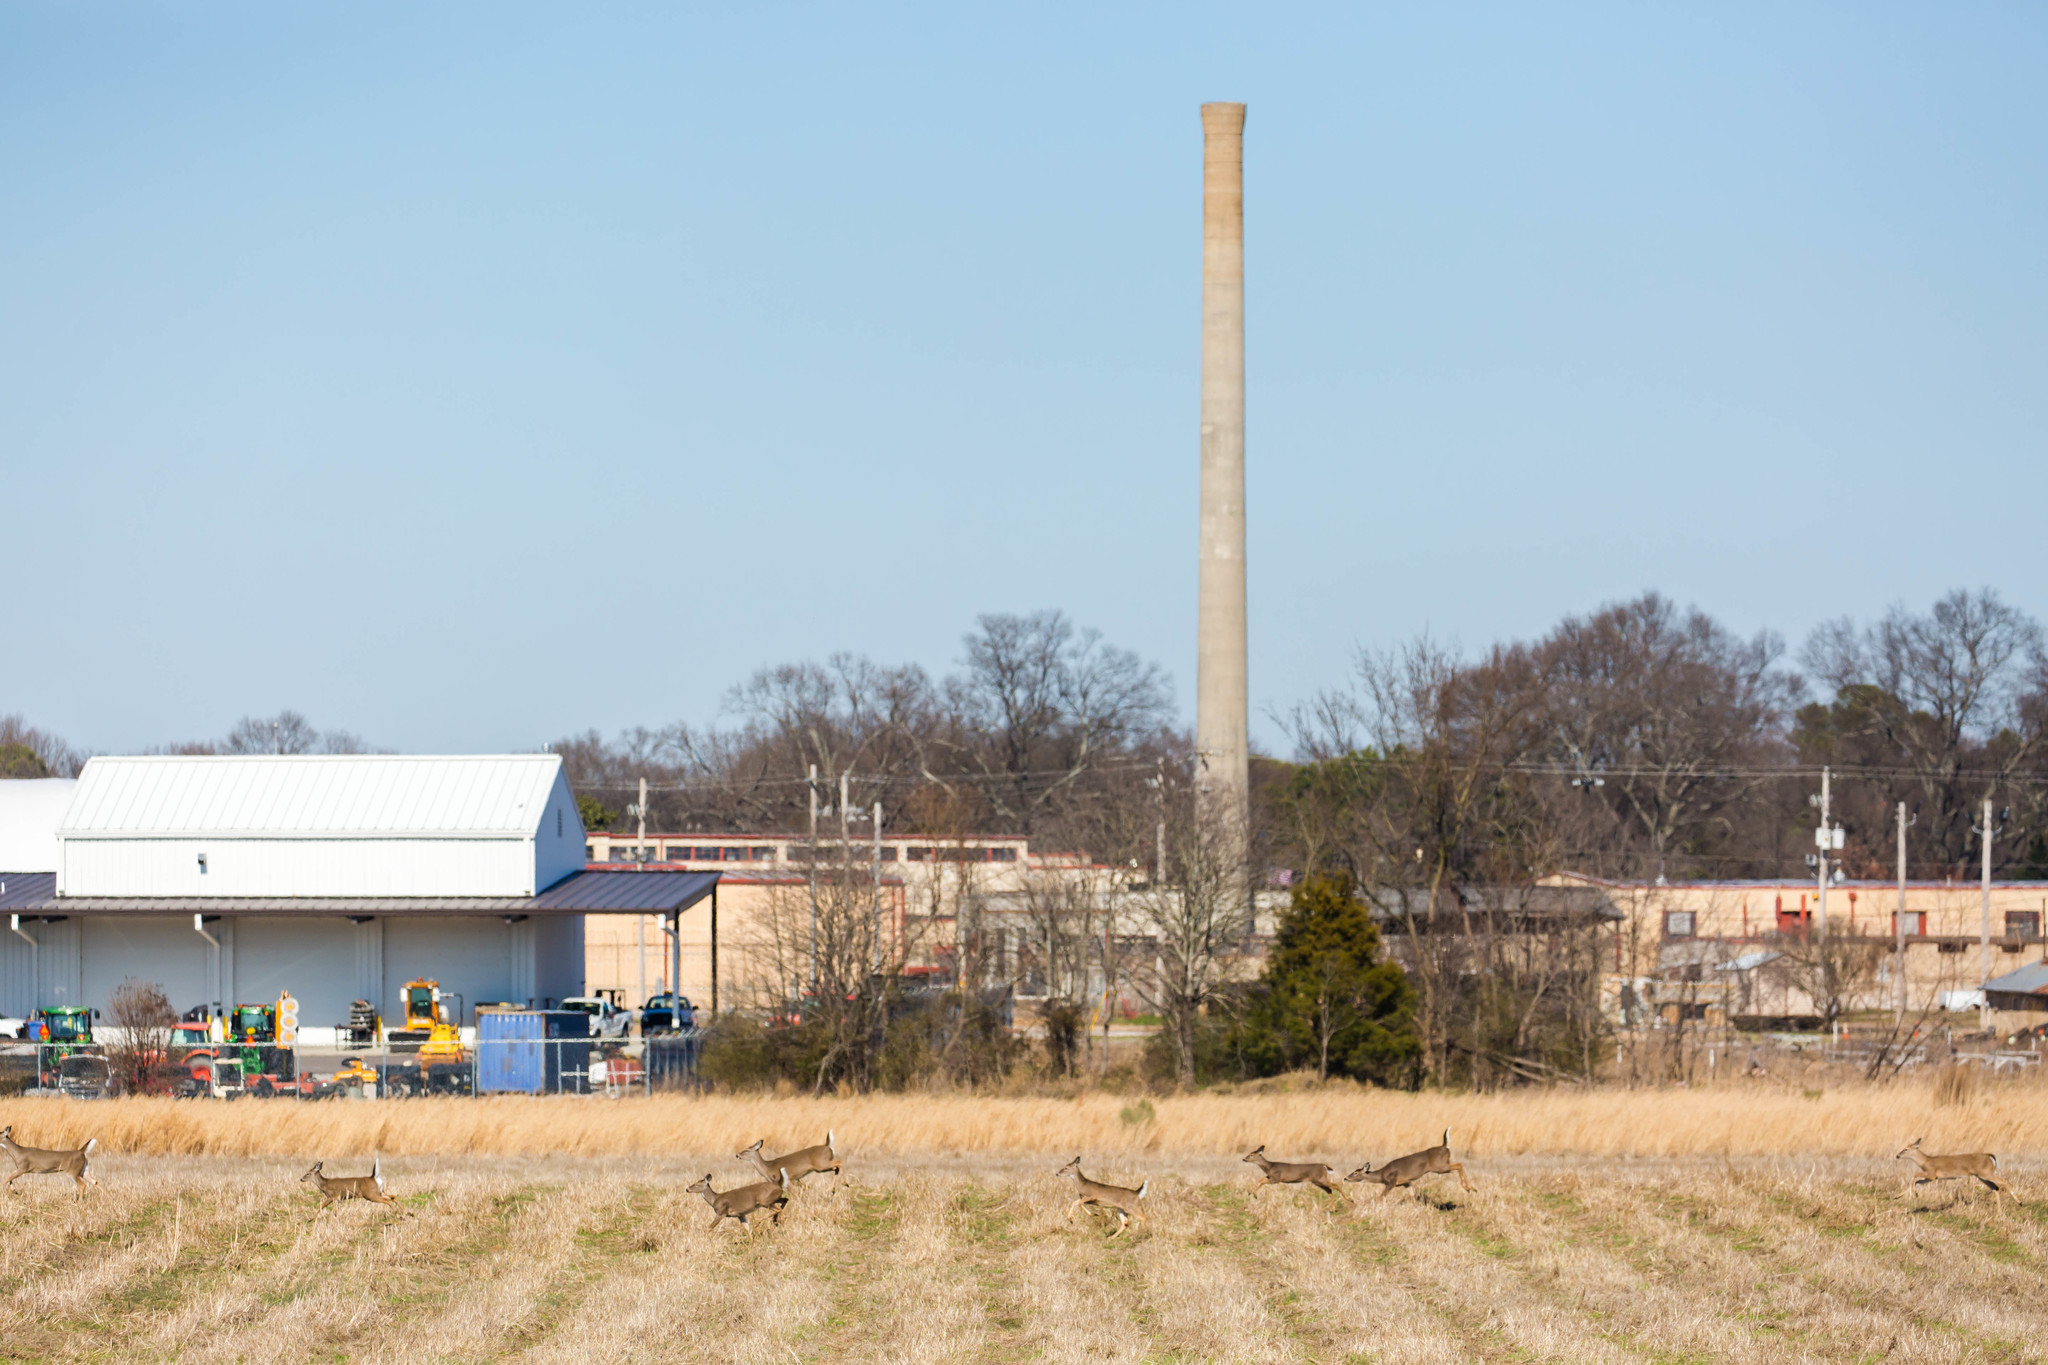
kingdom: Animalia
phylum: Chordata
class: Mammalia
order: Artiodactyla
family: Cervidae
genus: Odocoileus
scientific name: Odocoileus virginianus
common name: White-tailed deer
